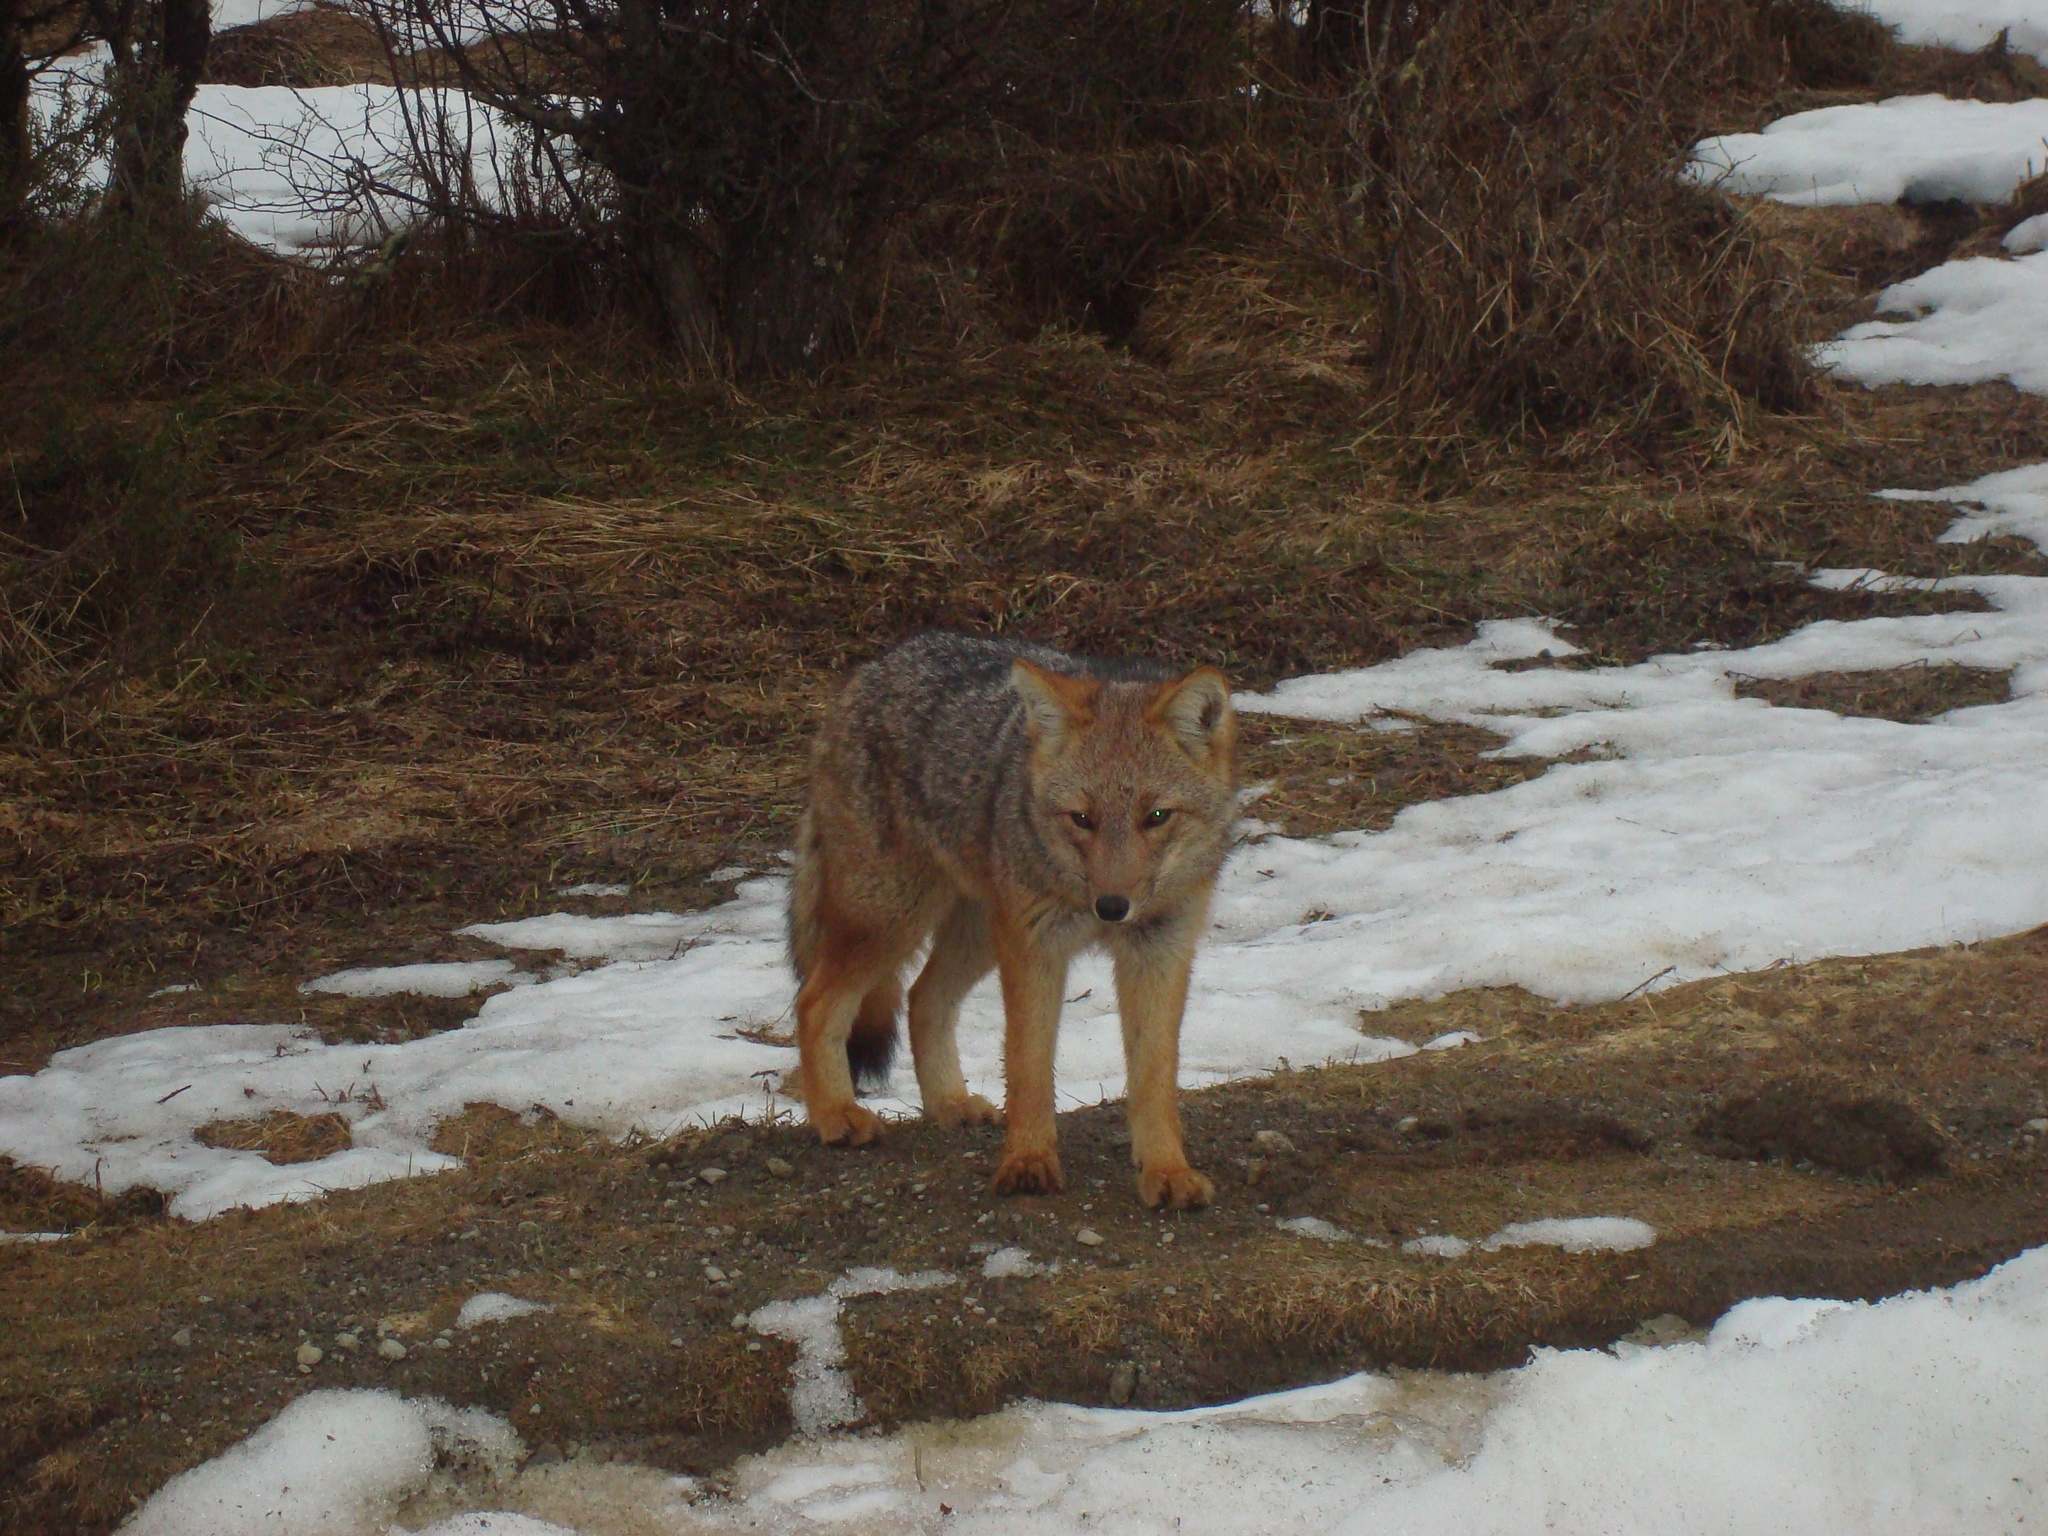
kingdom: Animalia
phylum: Chordata
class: Mammalia
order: Carnivora
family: Canidae
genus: Lycalopex
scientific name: Lycalopex culpaeus
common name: Culpeo
